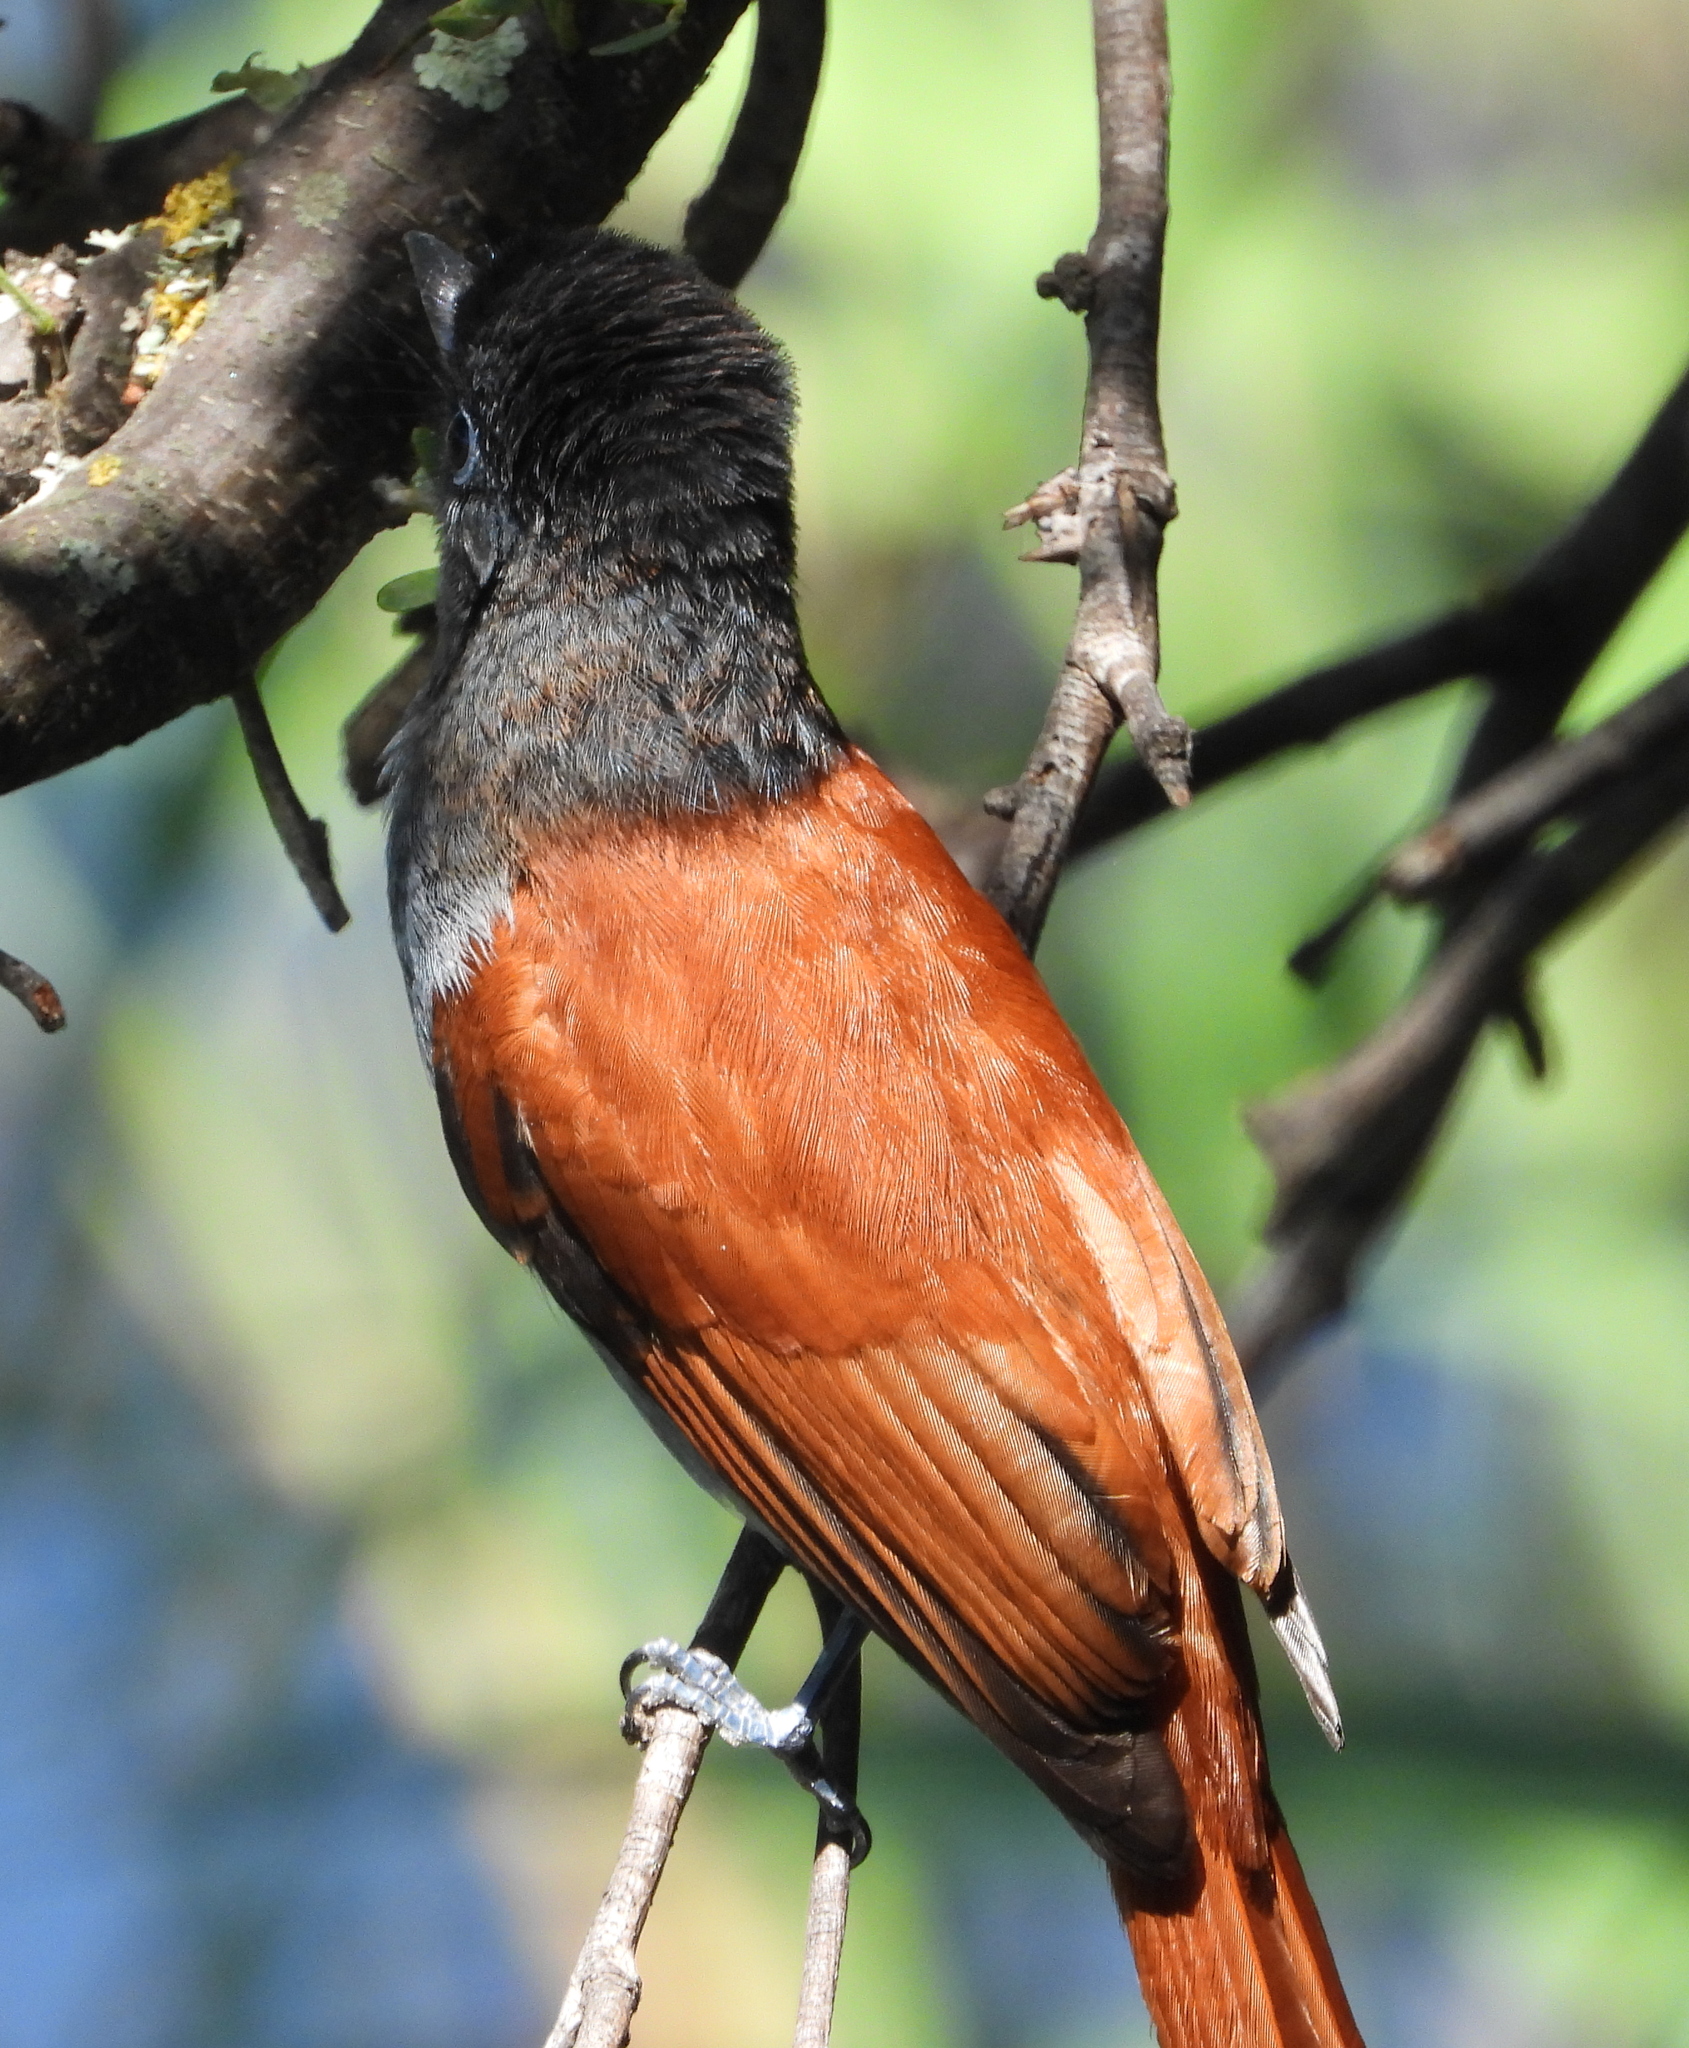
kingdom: Animalia
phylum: Chordata
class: Aves
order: Passeriformes
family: Monarchidae
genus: Terpsiphone
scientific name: Terpsiphone viridis
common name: African paradise flycatcher
